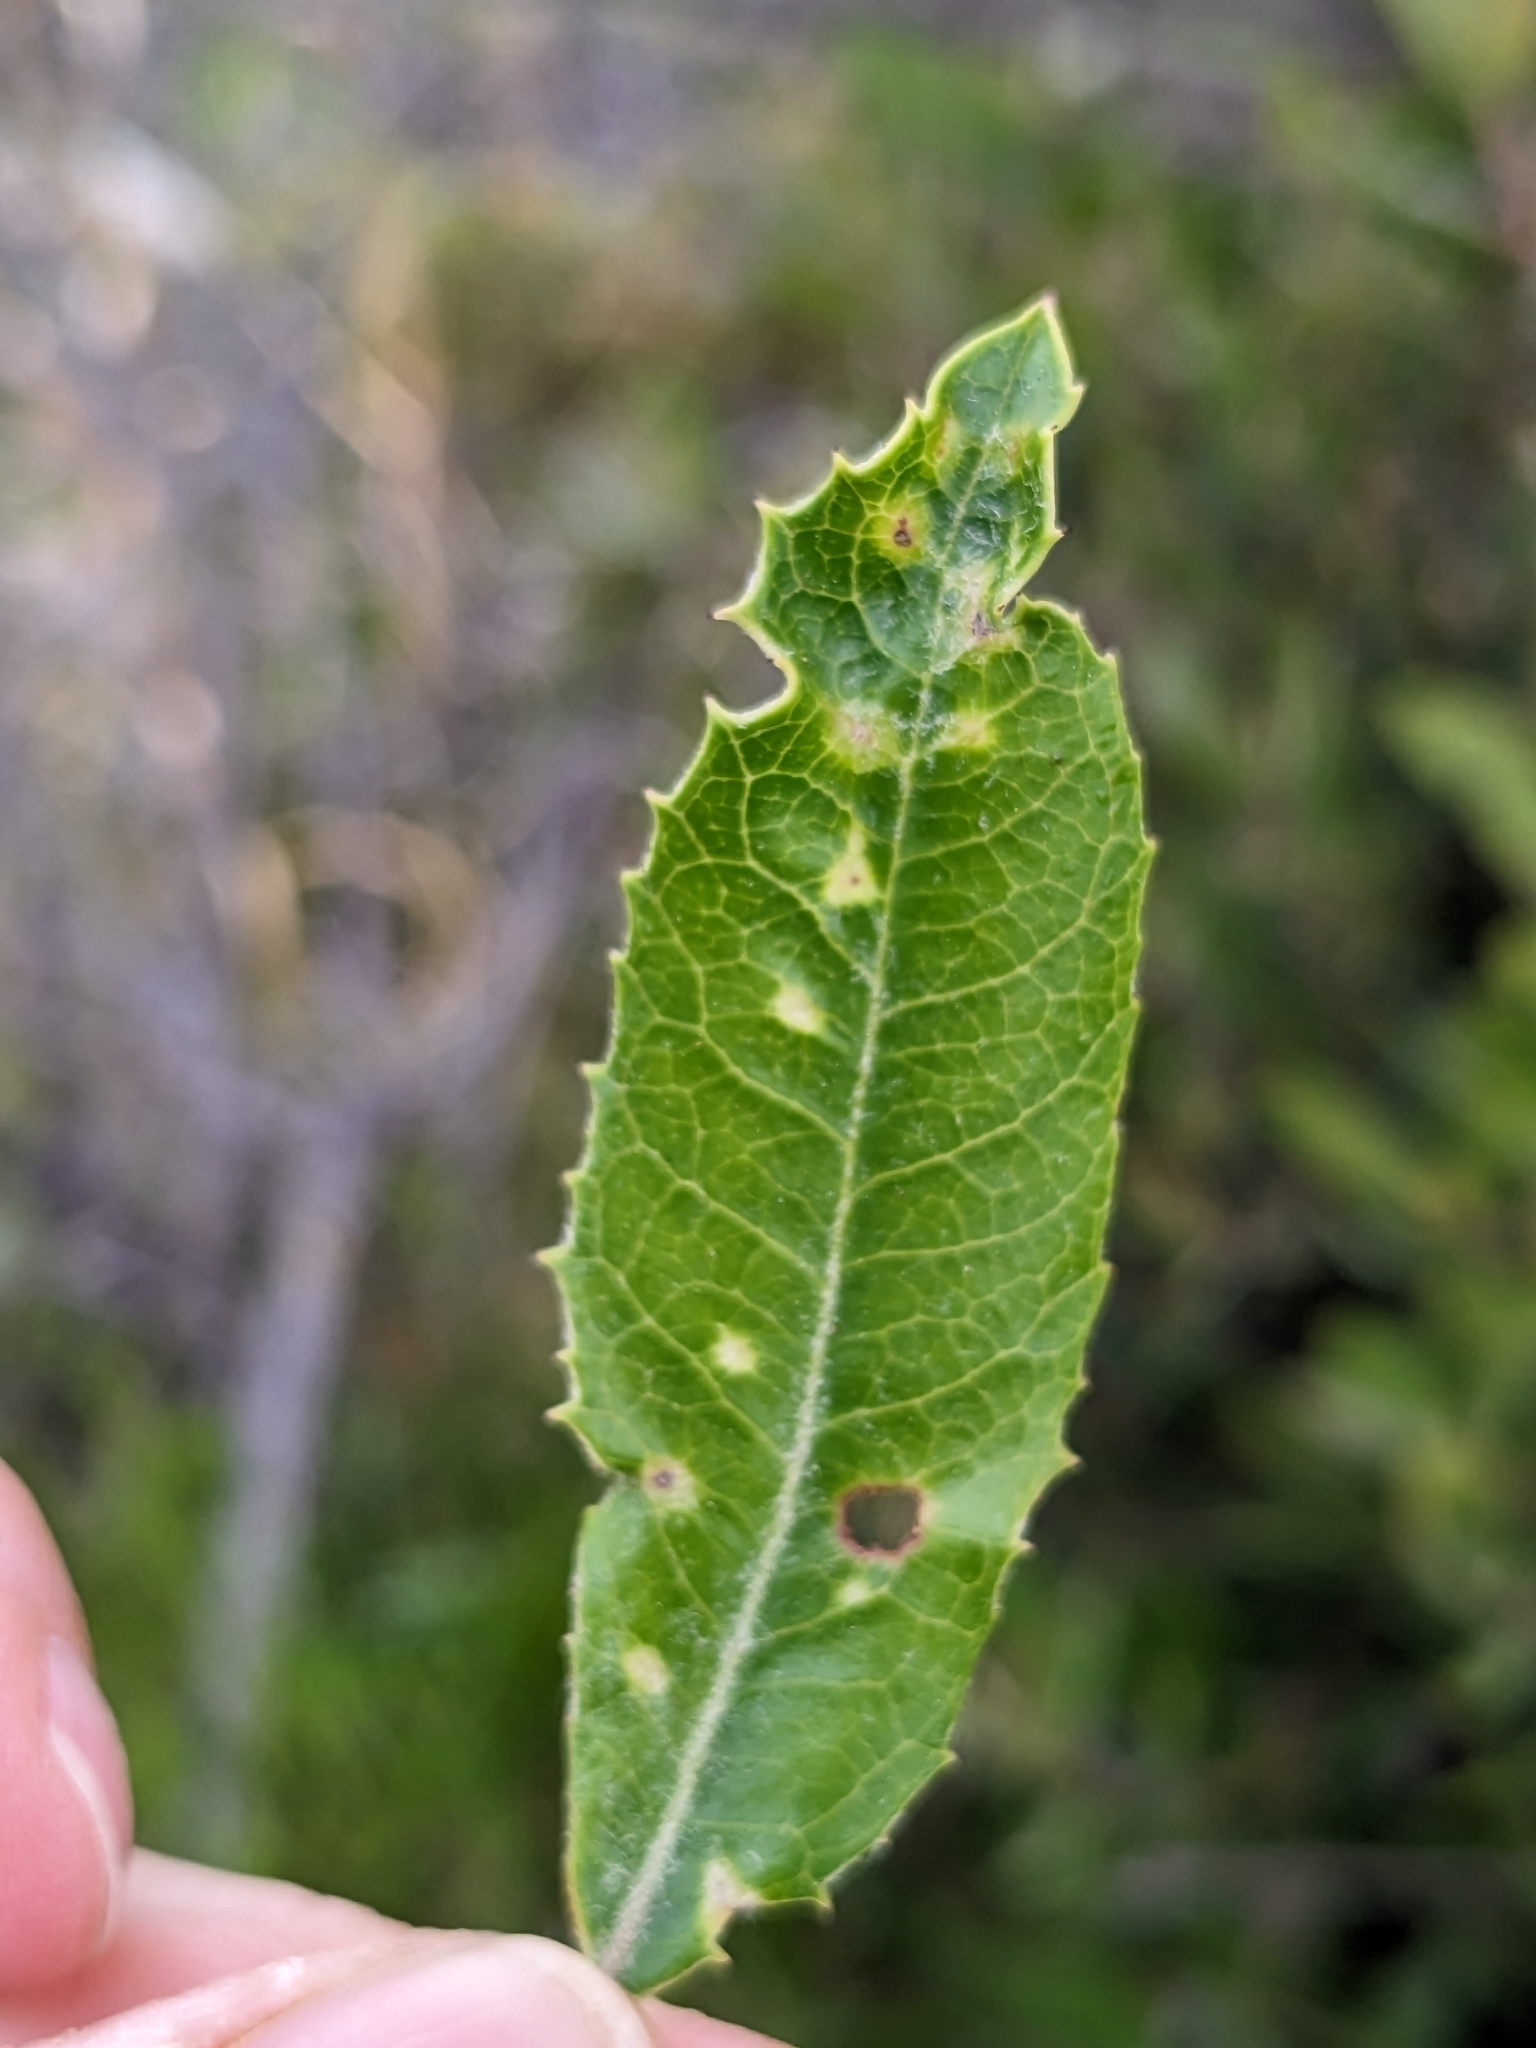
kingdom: Animalia
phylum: Arthropoda
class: Insecta
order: Thysanoptera
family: Phlaeothripidae
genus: Liothrips
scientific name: Liothrips ilex
